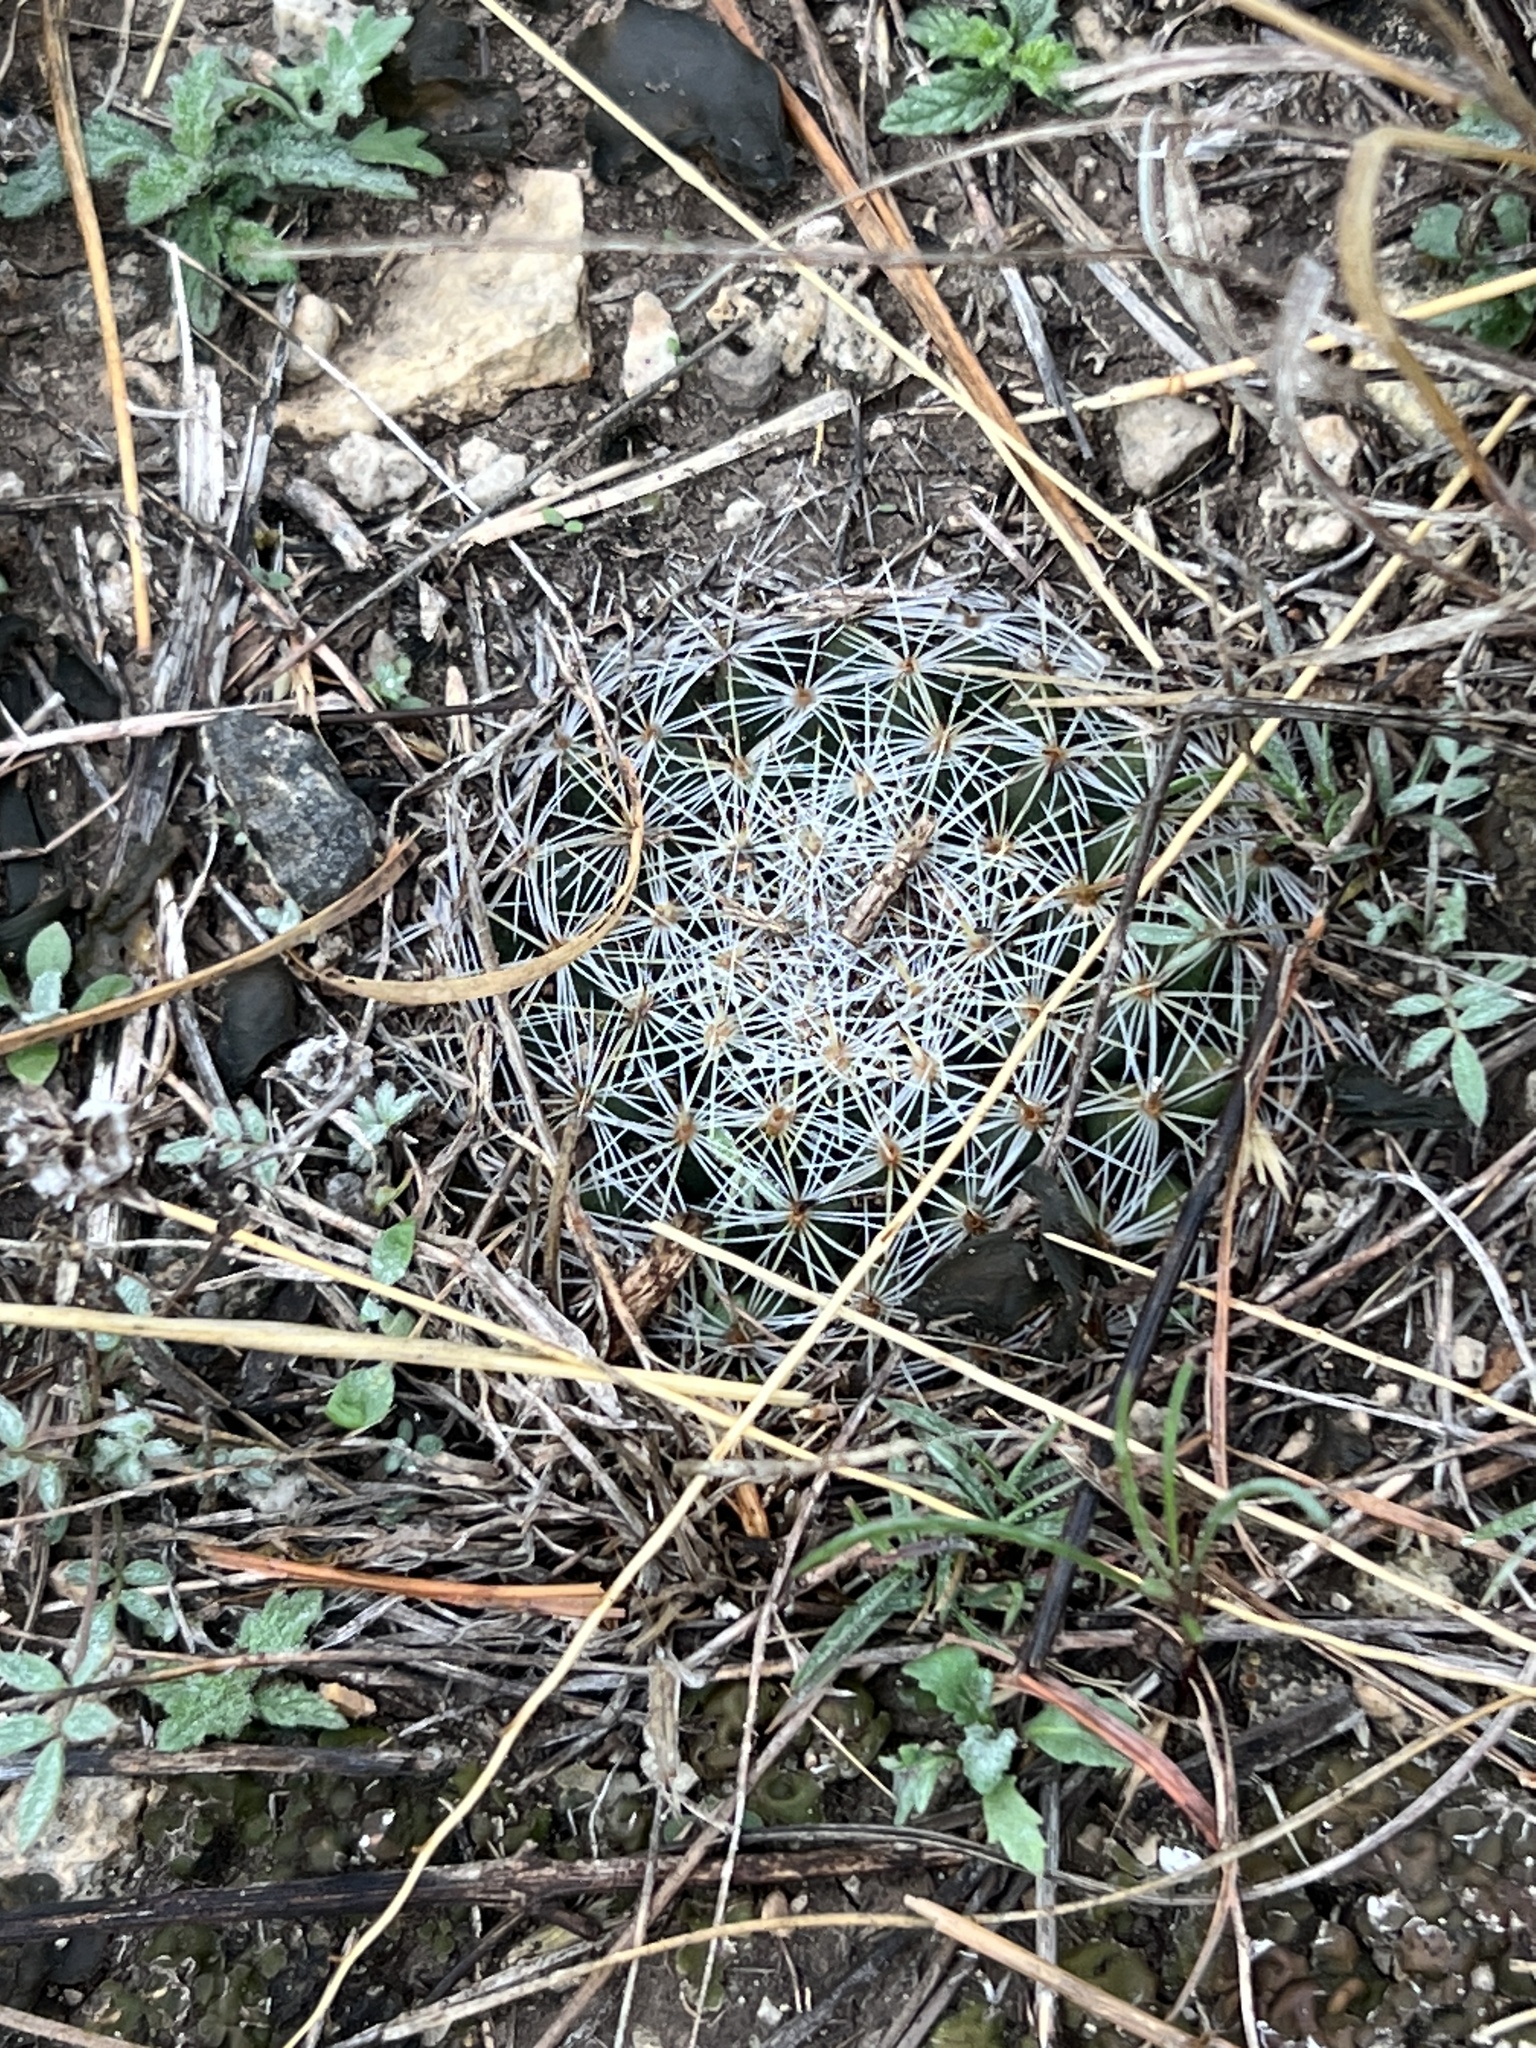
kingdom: Plantae
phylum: Tracheophyta
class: Magnoliopsida
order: Caryophyllales
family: Cactaceae
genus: Mammillaria
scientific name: Mammillaria heyderi
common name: Little nipple cactus
